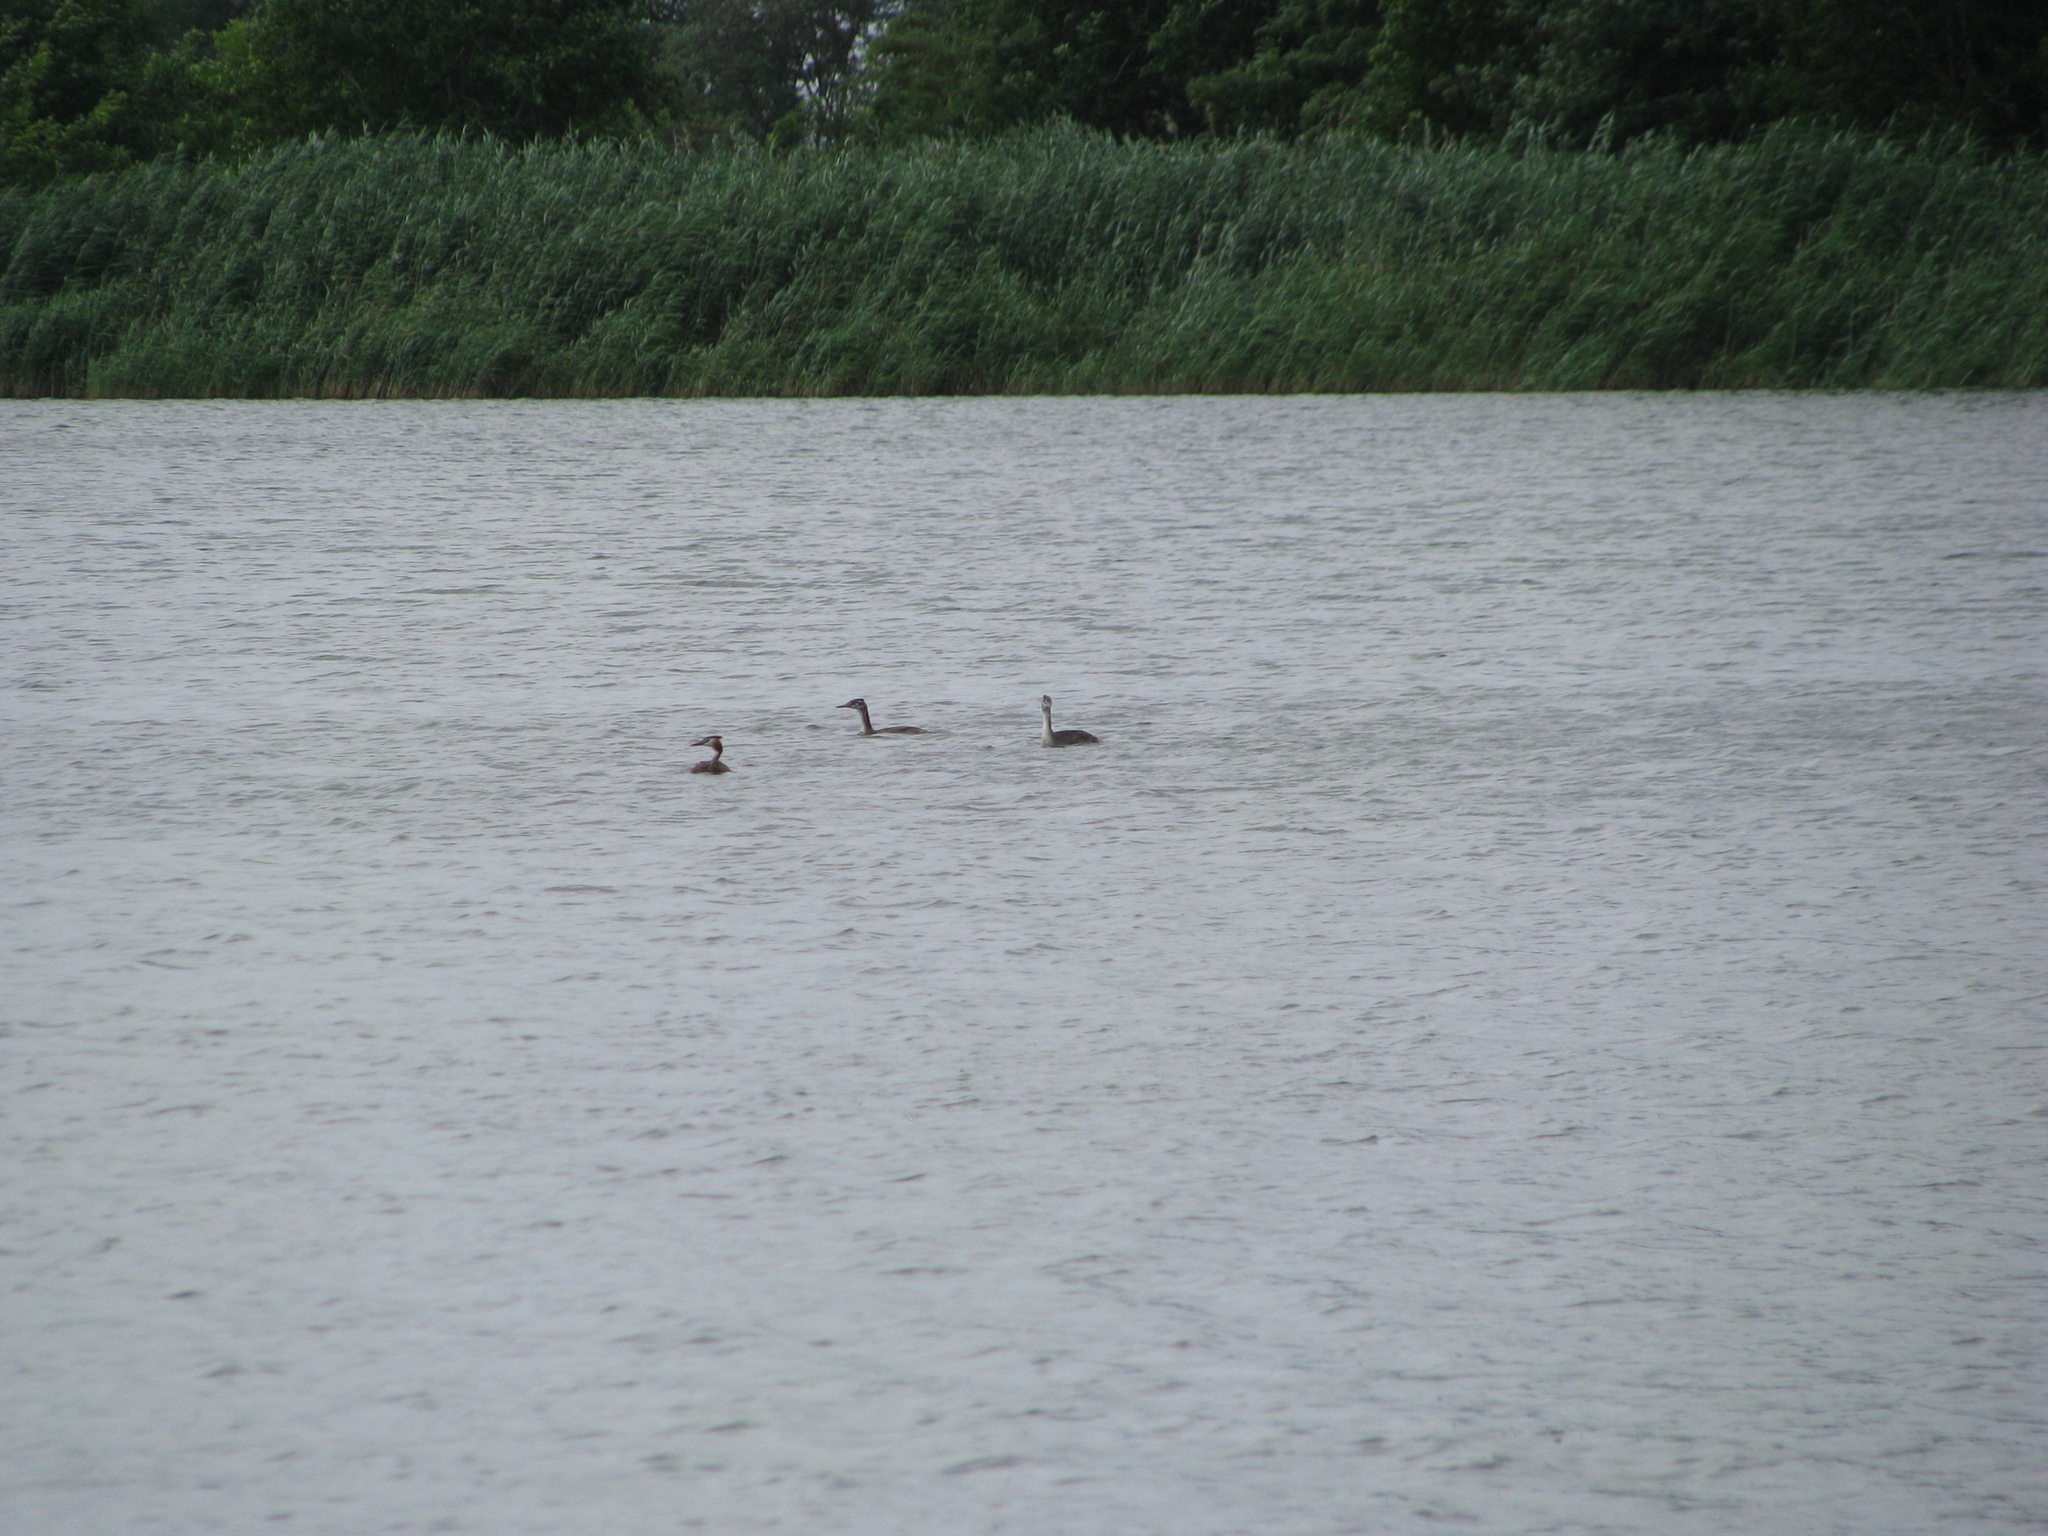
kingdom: Animalia
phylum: Chordata
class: Aves
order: Podicipediformes
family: Podicipedidae
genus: Podiceps
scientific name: Podiceps cristatus
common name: Great crested grebe
